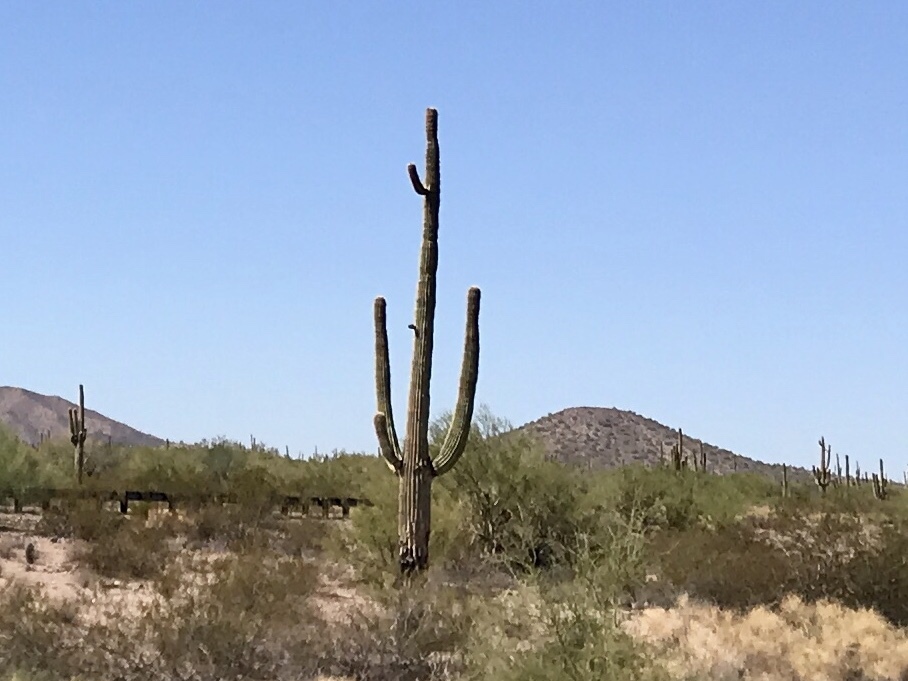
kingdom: Plantae
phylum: Tracheophyta
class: Magnoliopsida
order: Caryophyllales
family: Cactaceae
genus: Carnegiea
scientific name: Carnegiea gigantea
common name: Saguaro
